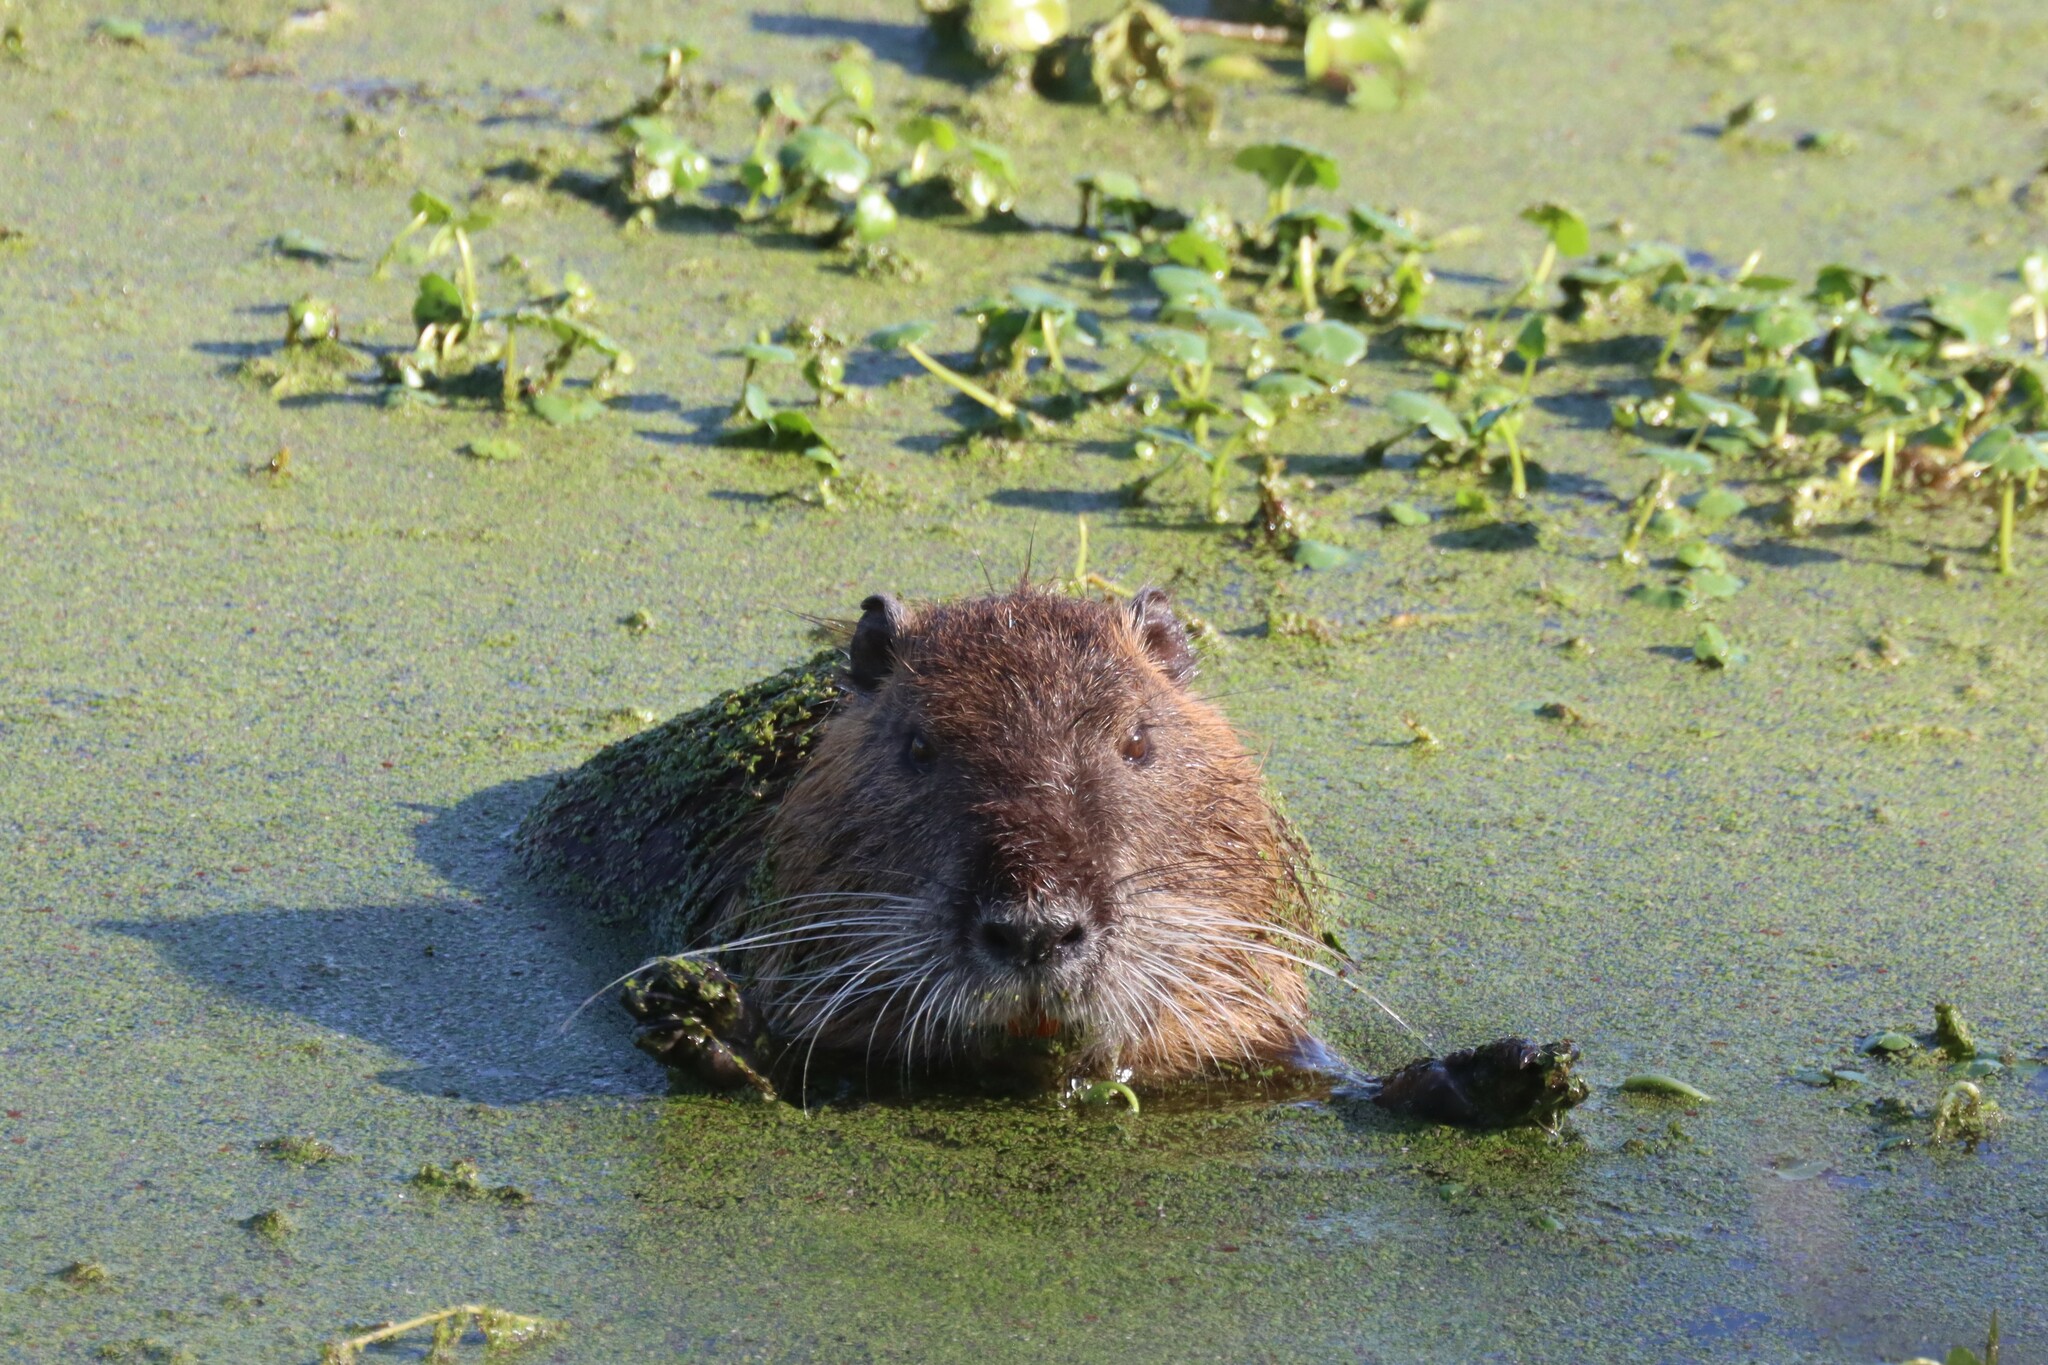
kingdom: Animalia
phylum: Chordata
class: Mammalia
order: Rodentia
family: Myocastoridae
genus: Myocastor
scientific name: Myocastor coypus
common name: Coypu
